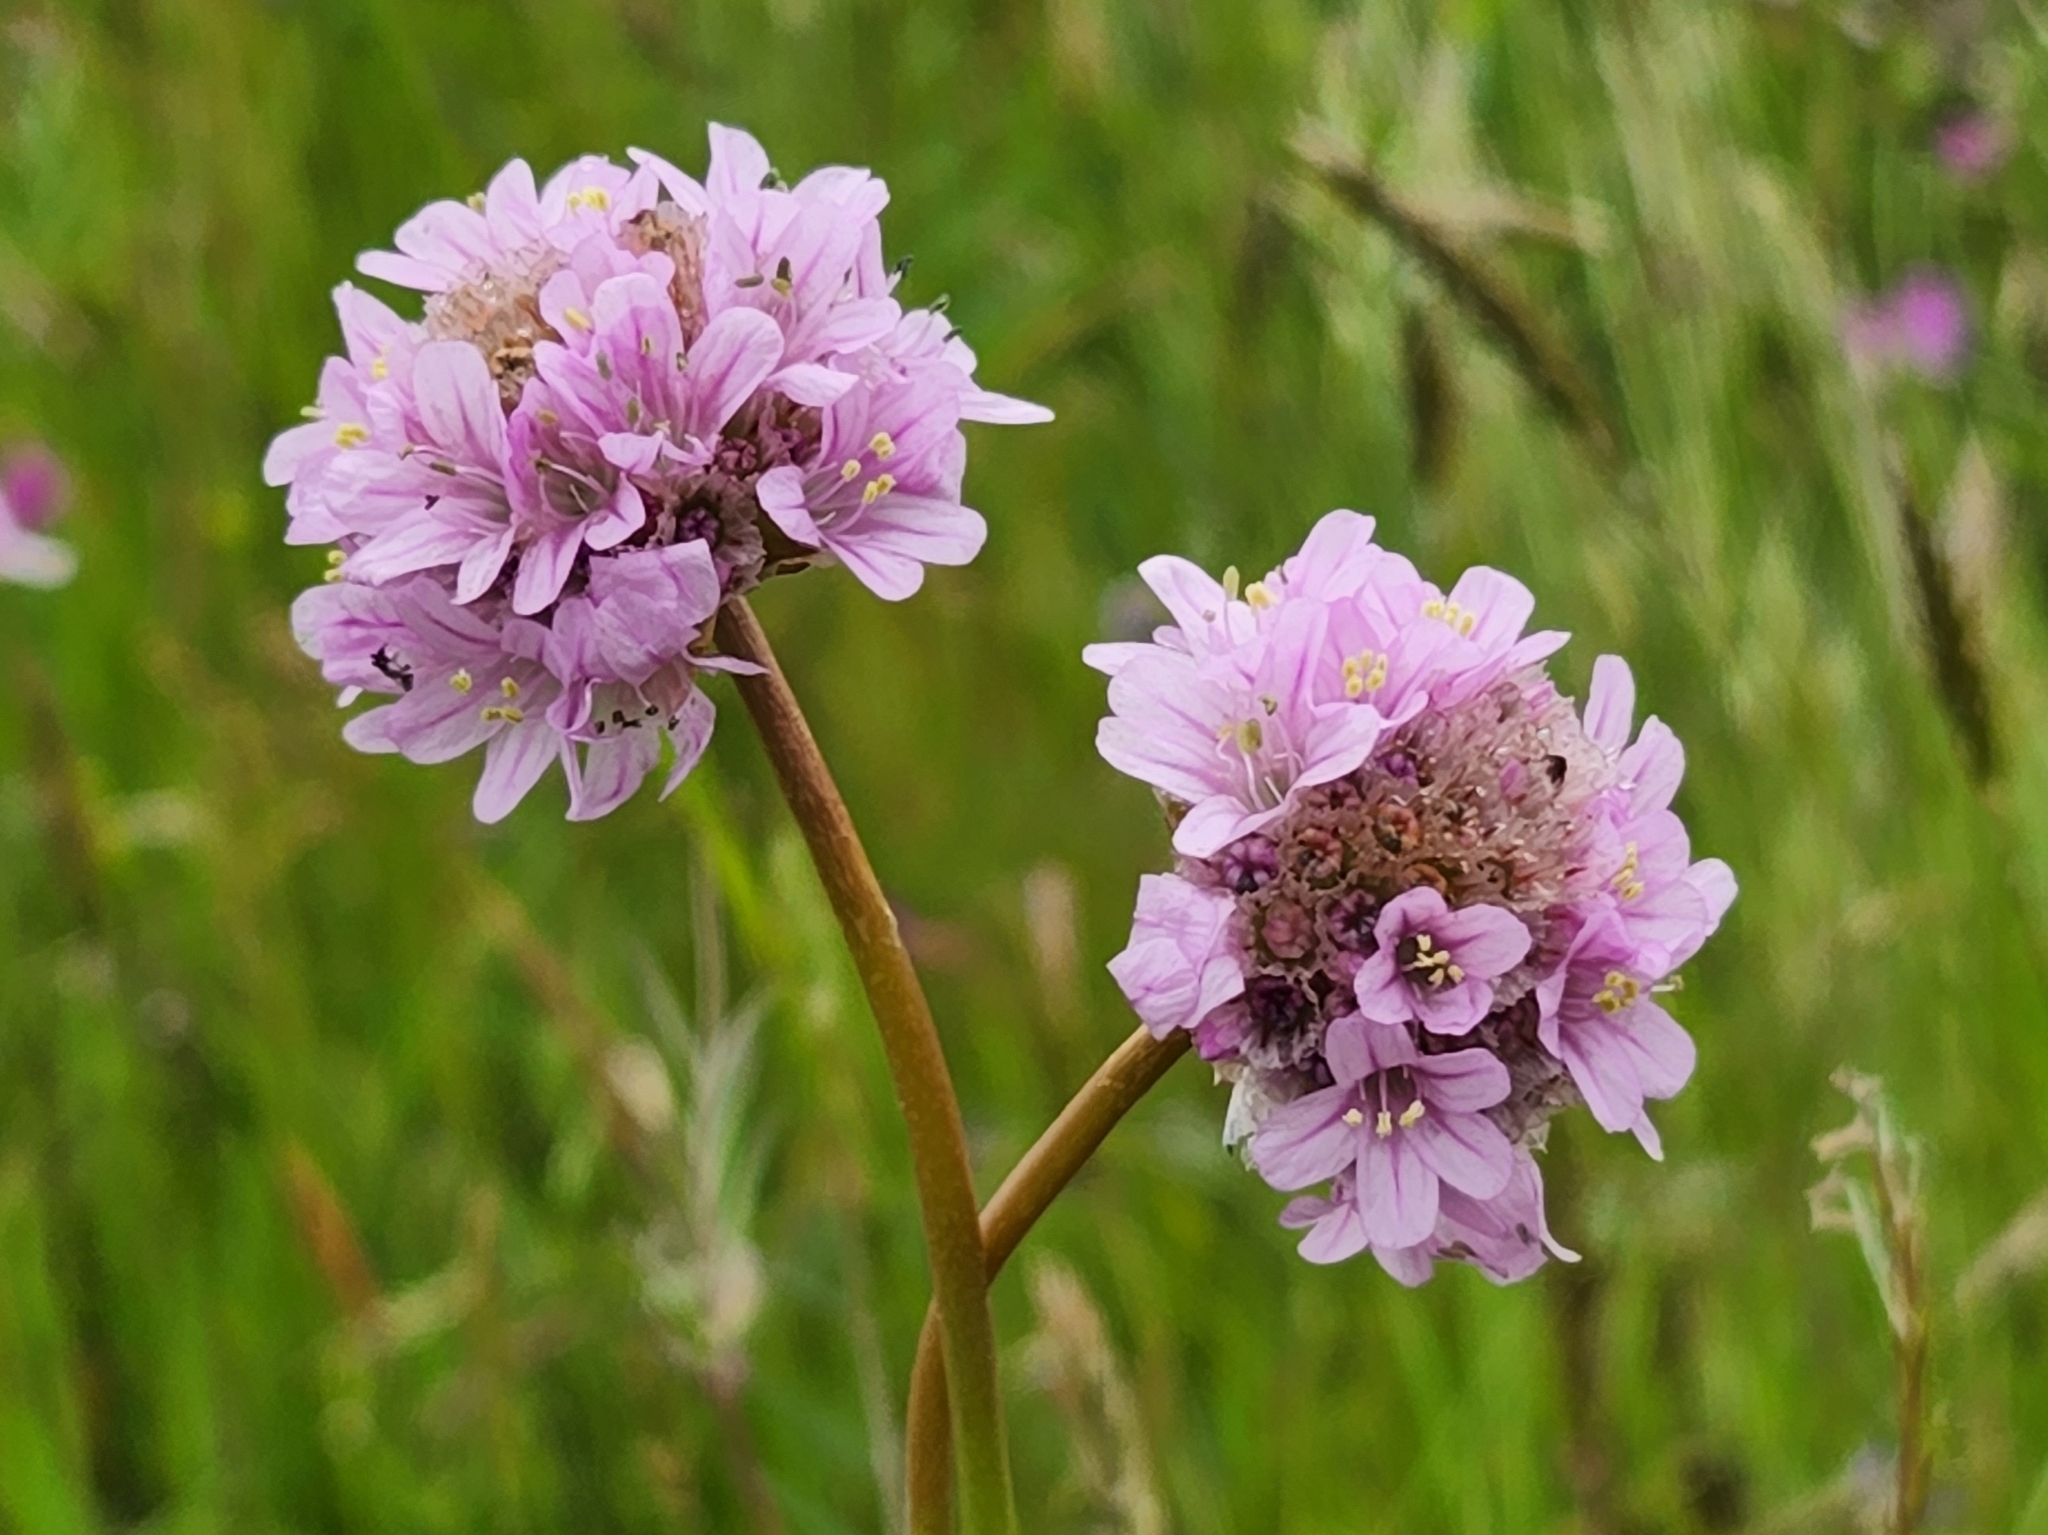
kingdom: Plantae
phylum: Tracheophyta
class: Magnoliopsida
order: Caryophyllales
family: Plumbaginaceae
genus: Armeria
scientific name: Armeria maritima
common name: Thrift
